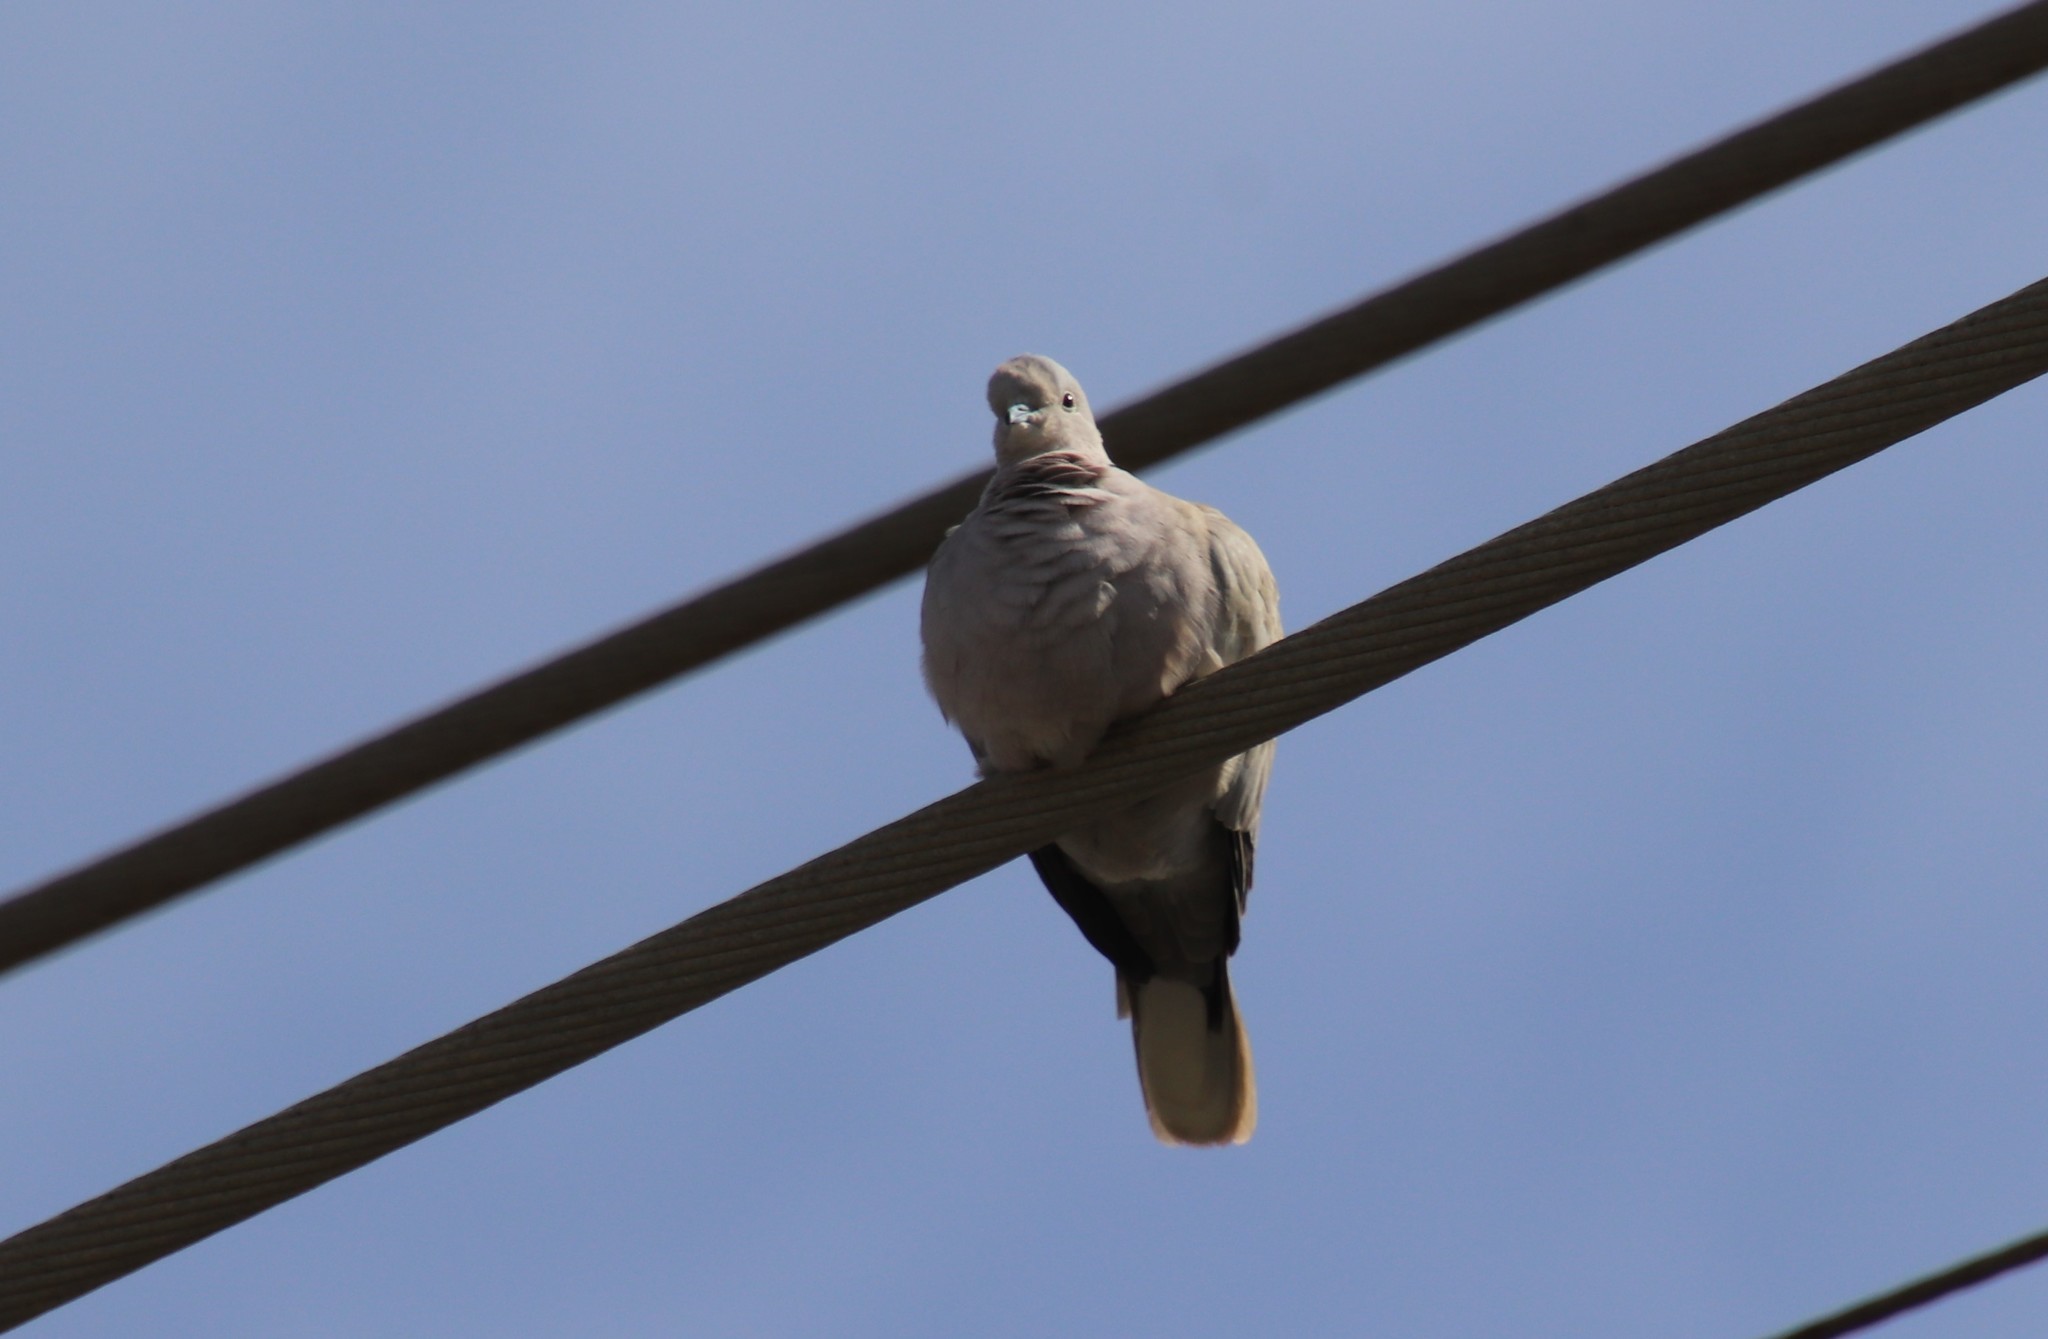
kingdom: Animalia
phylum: Chordata
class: Aves
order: Columbiformes
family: Columbidae
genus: Streptopelia
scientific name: Streptopelia decaocto
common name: Eurasian collared dove
